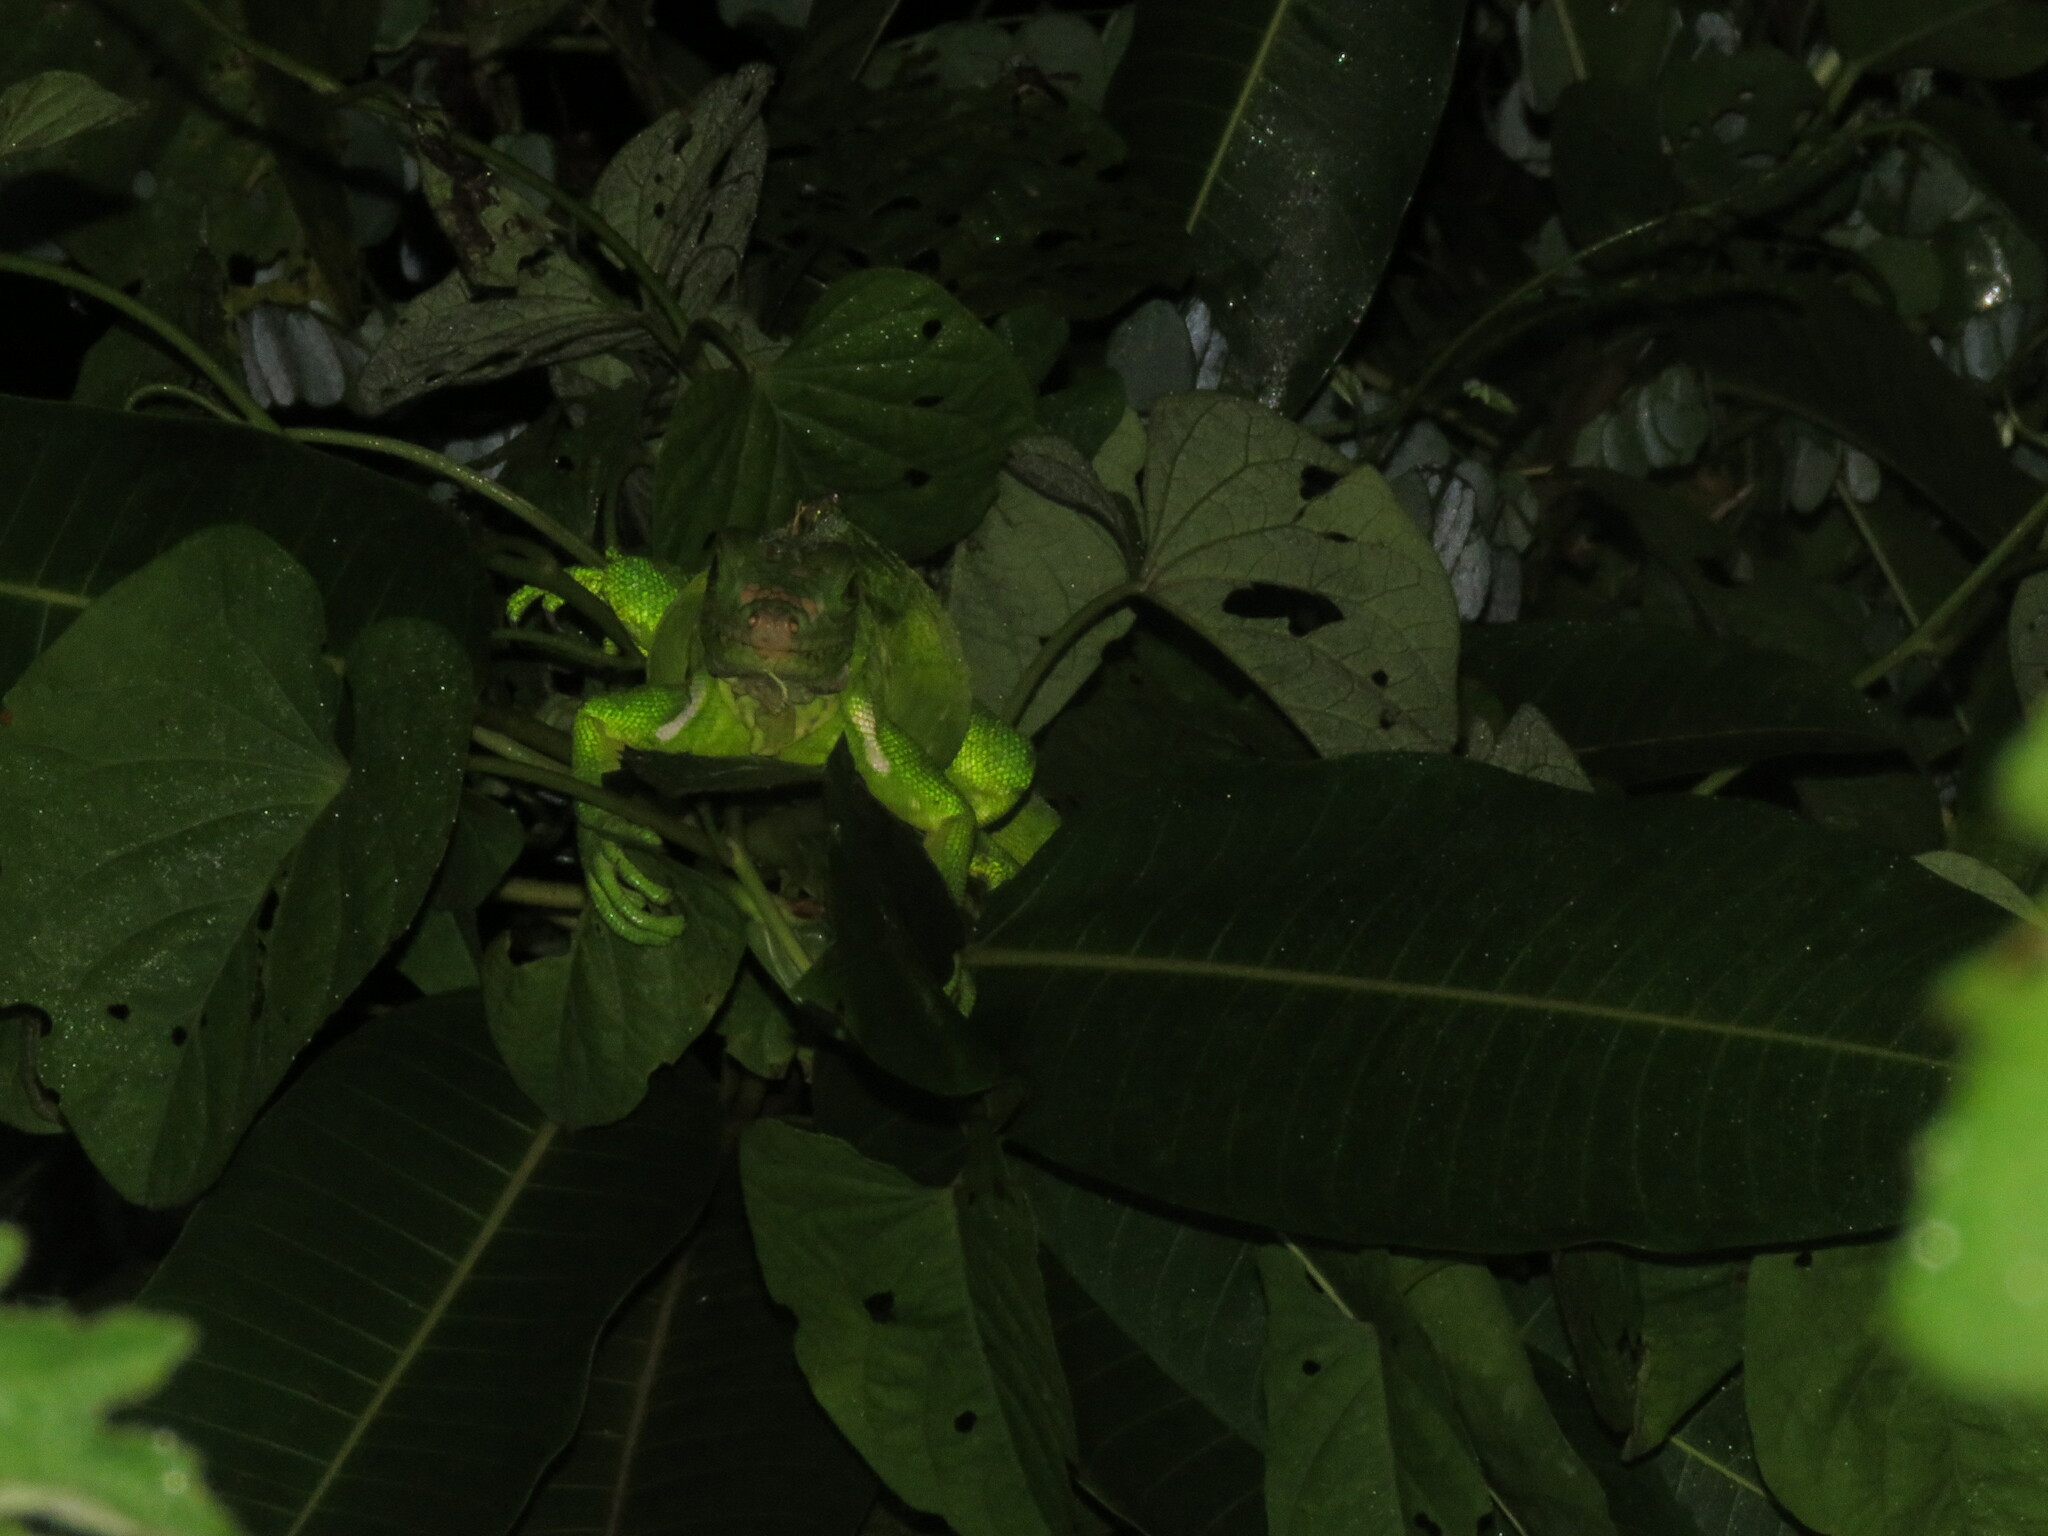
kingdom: Animalia
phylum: Chordata
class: Squamata
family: Iguanidae
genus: Iguana
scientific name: Iguana iguana
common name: Green iguana
